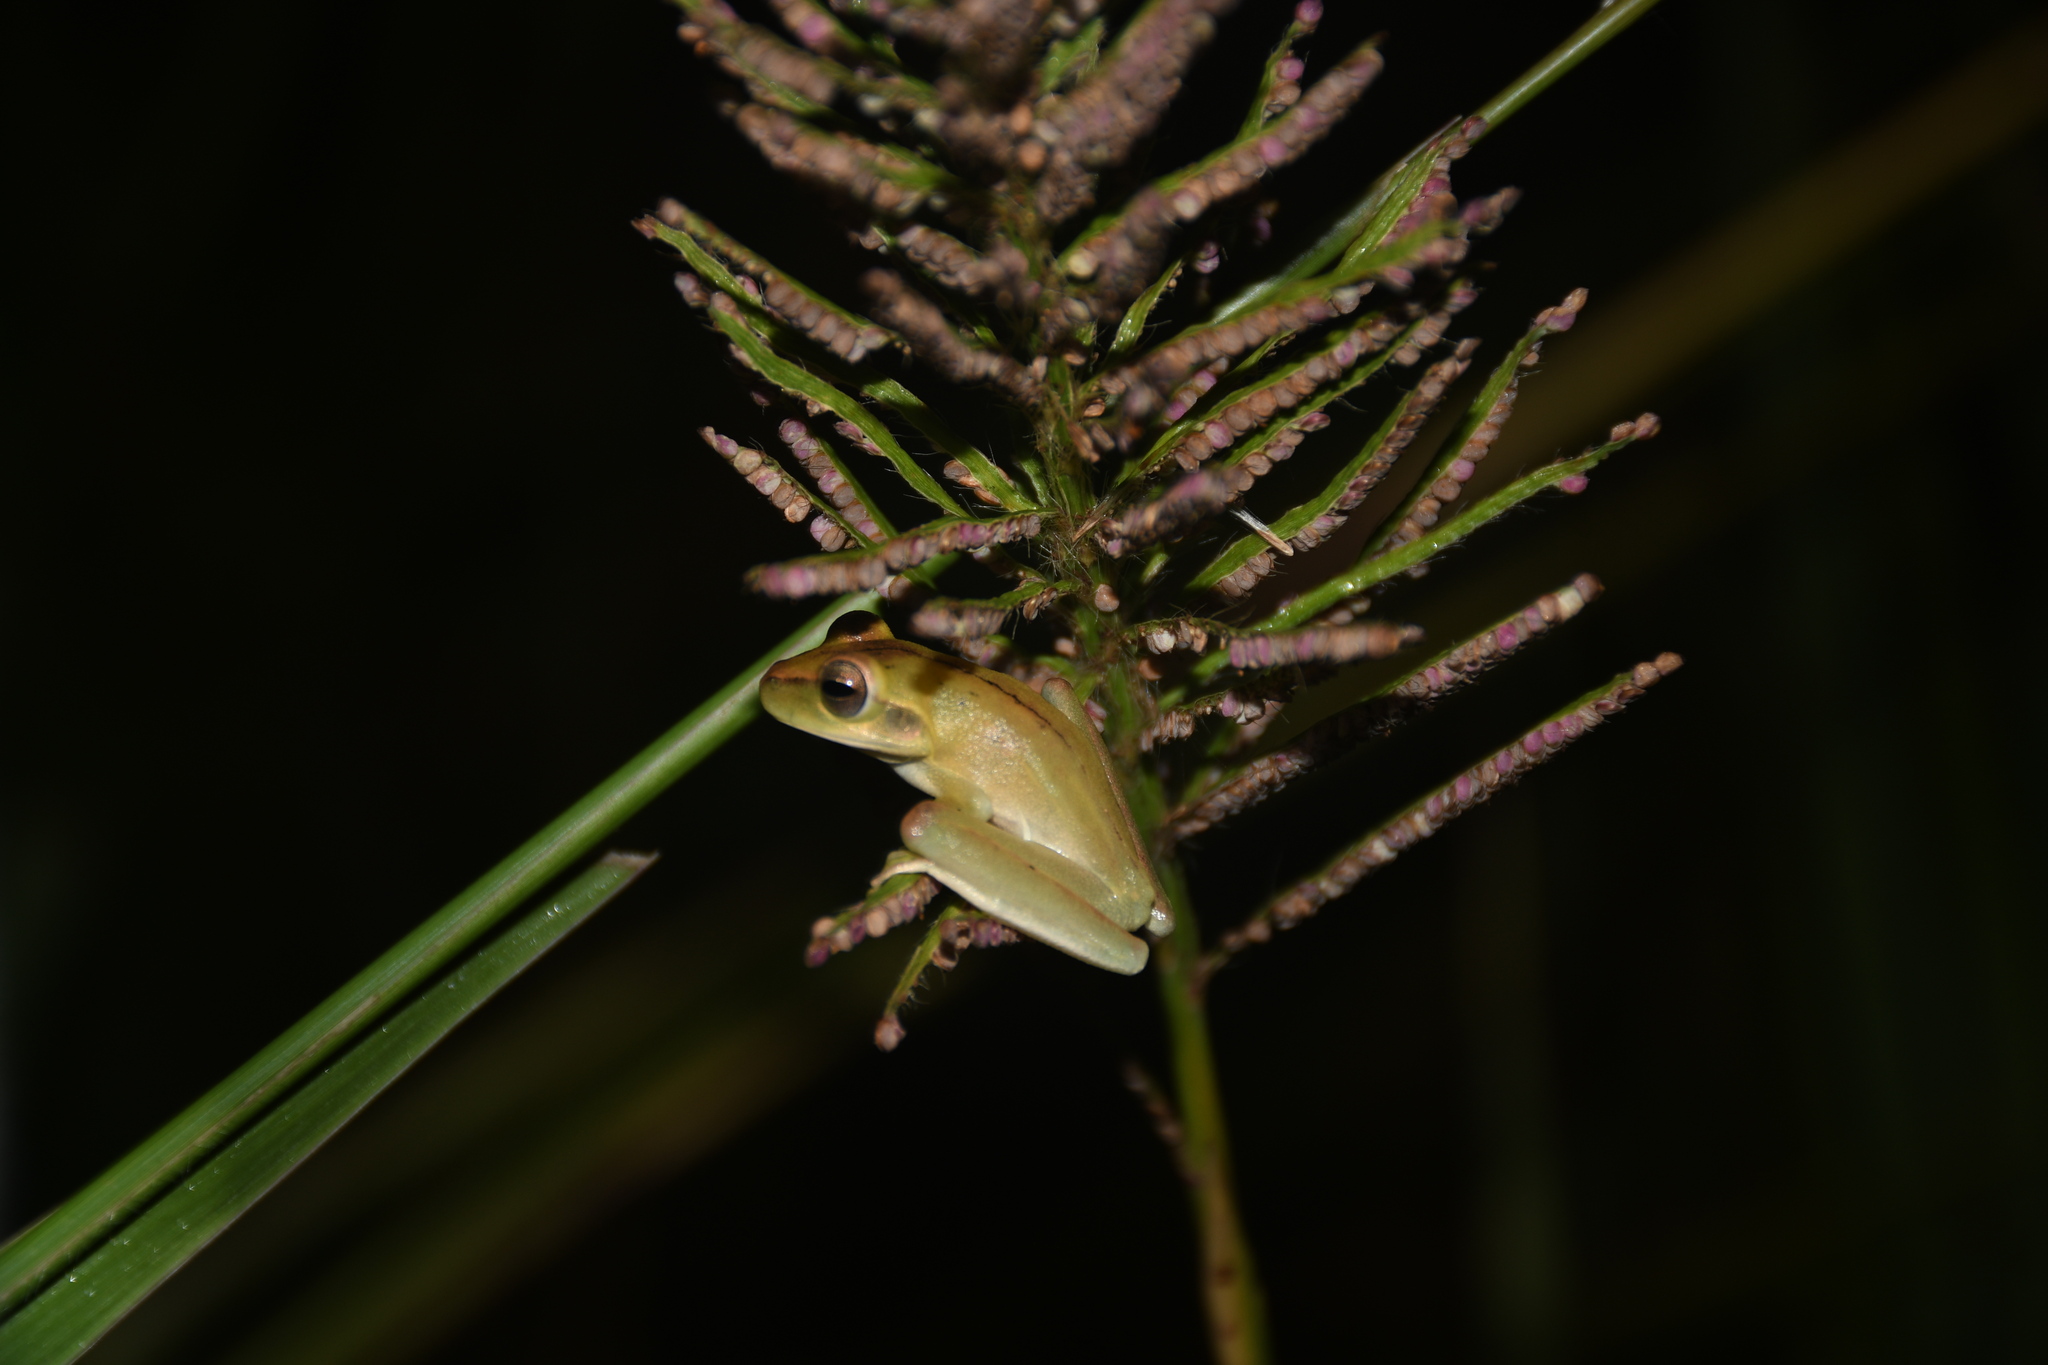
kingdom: Animalia
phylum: Chordata
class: Amphibia
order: Anura
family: Hylidae
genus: Boana
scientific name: Boana raniceps
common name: Chaco treefrog
